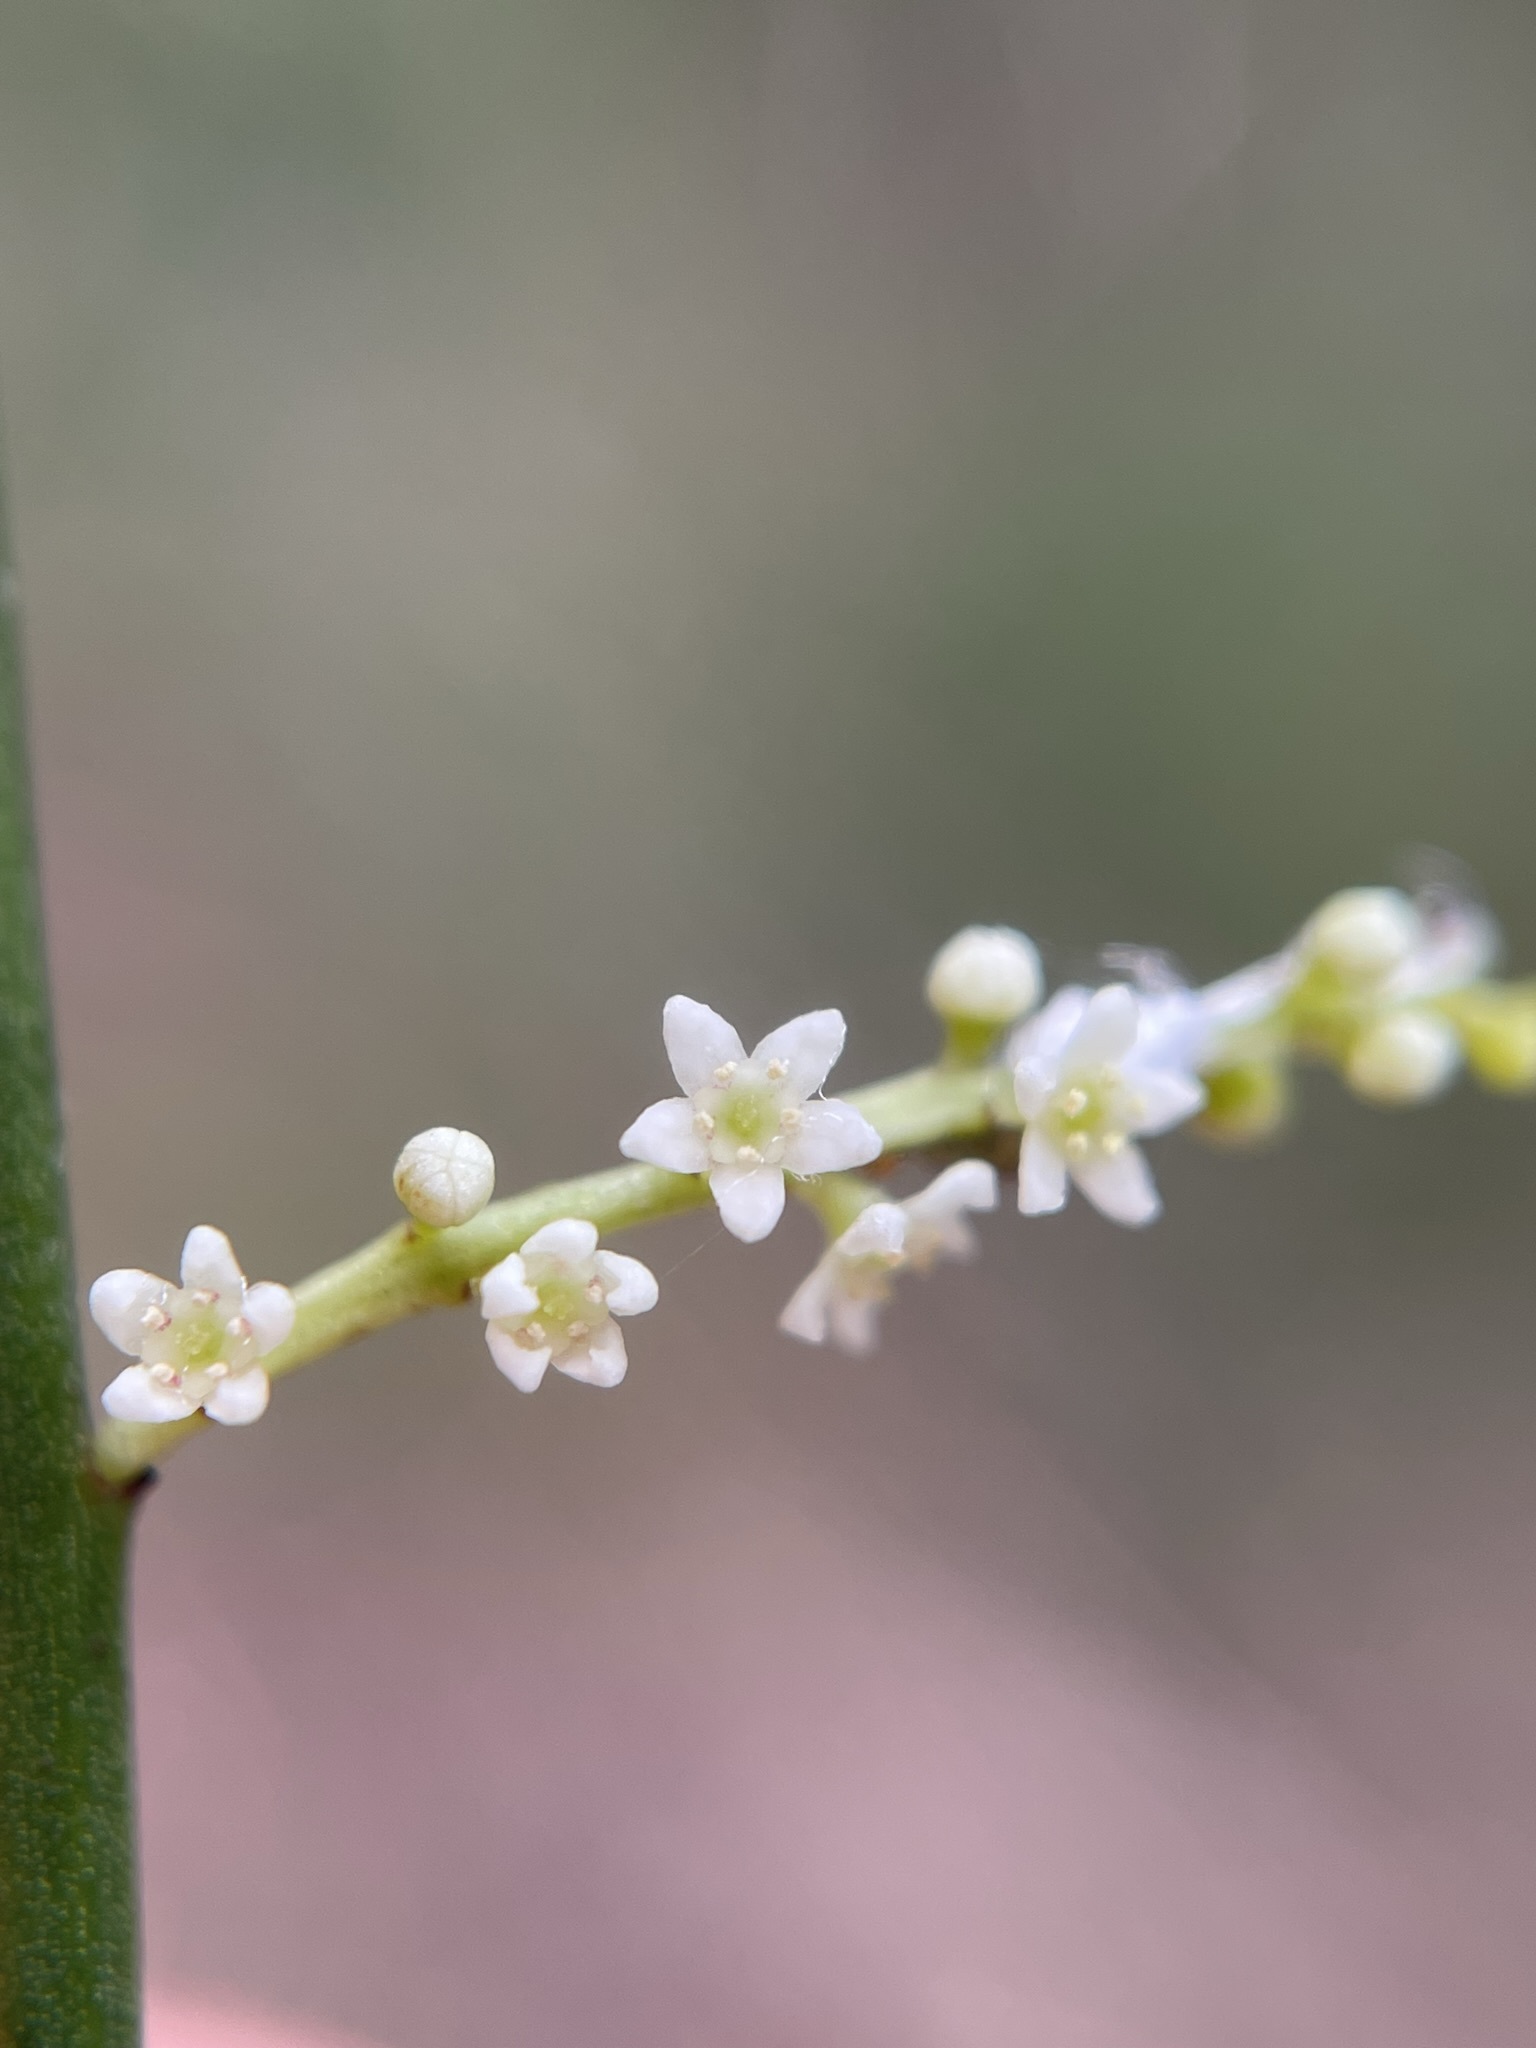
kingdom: Plantae
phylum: Tracheophyta
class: Magnoliopsida
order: Santalales
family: Amphorogynaceae
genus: Leptomeria
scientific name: Leptomeria drupacea
